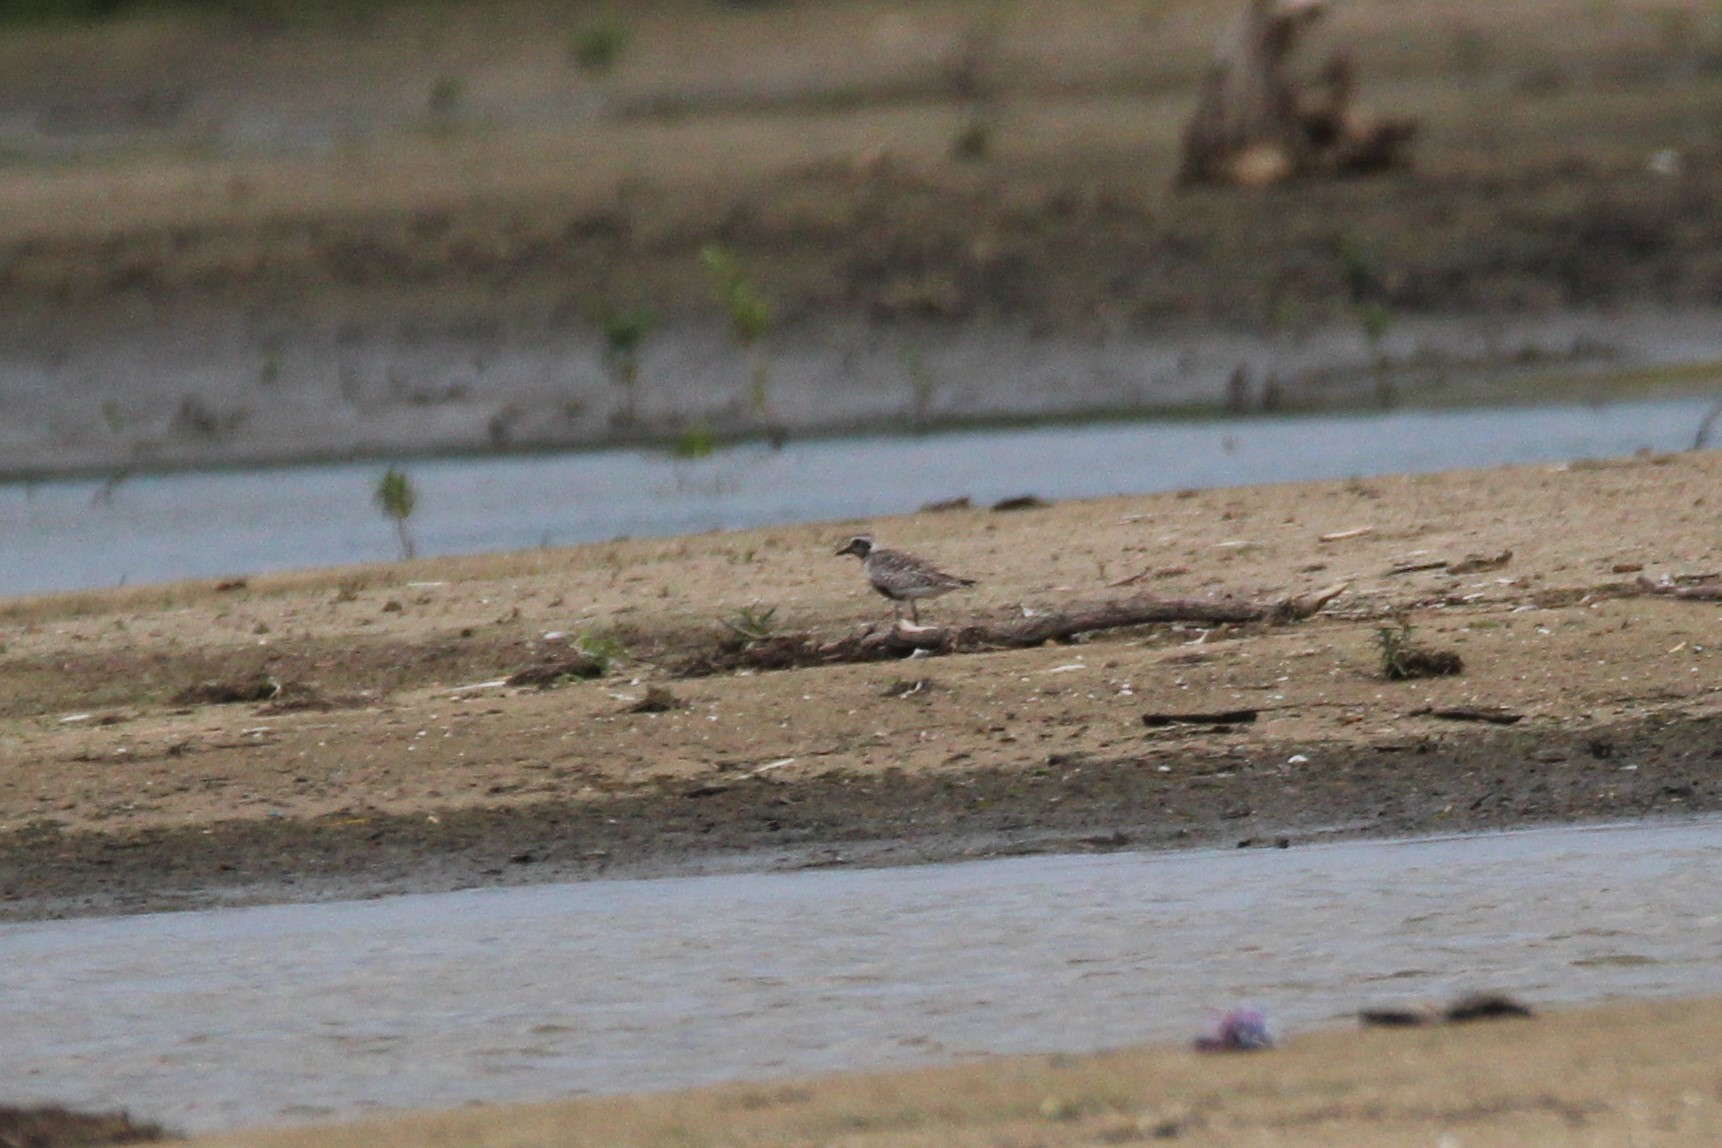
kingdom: Animalia
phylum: Chordata
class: Aves
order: Charadriiformes
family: Charadriidae
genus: Pluvialis
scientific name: Pluvialis squatarola
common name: Grey plover
